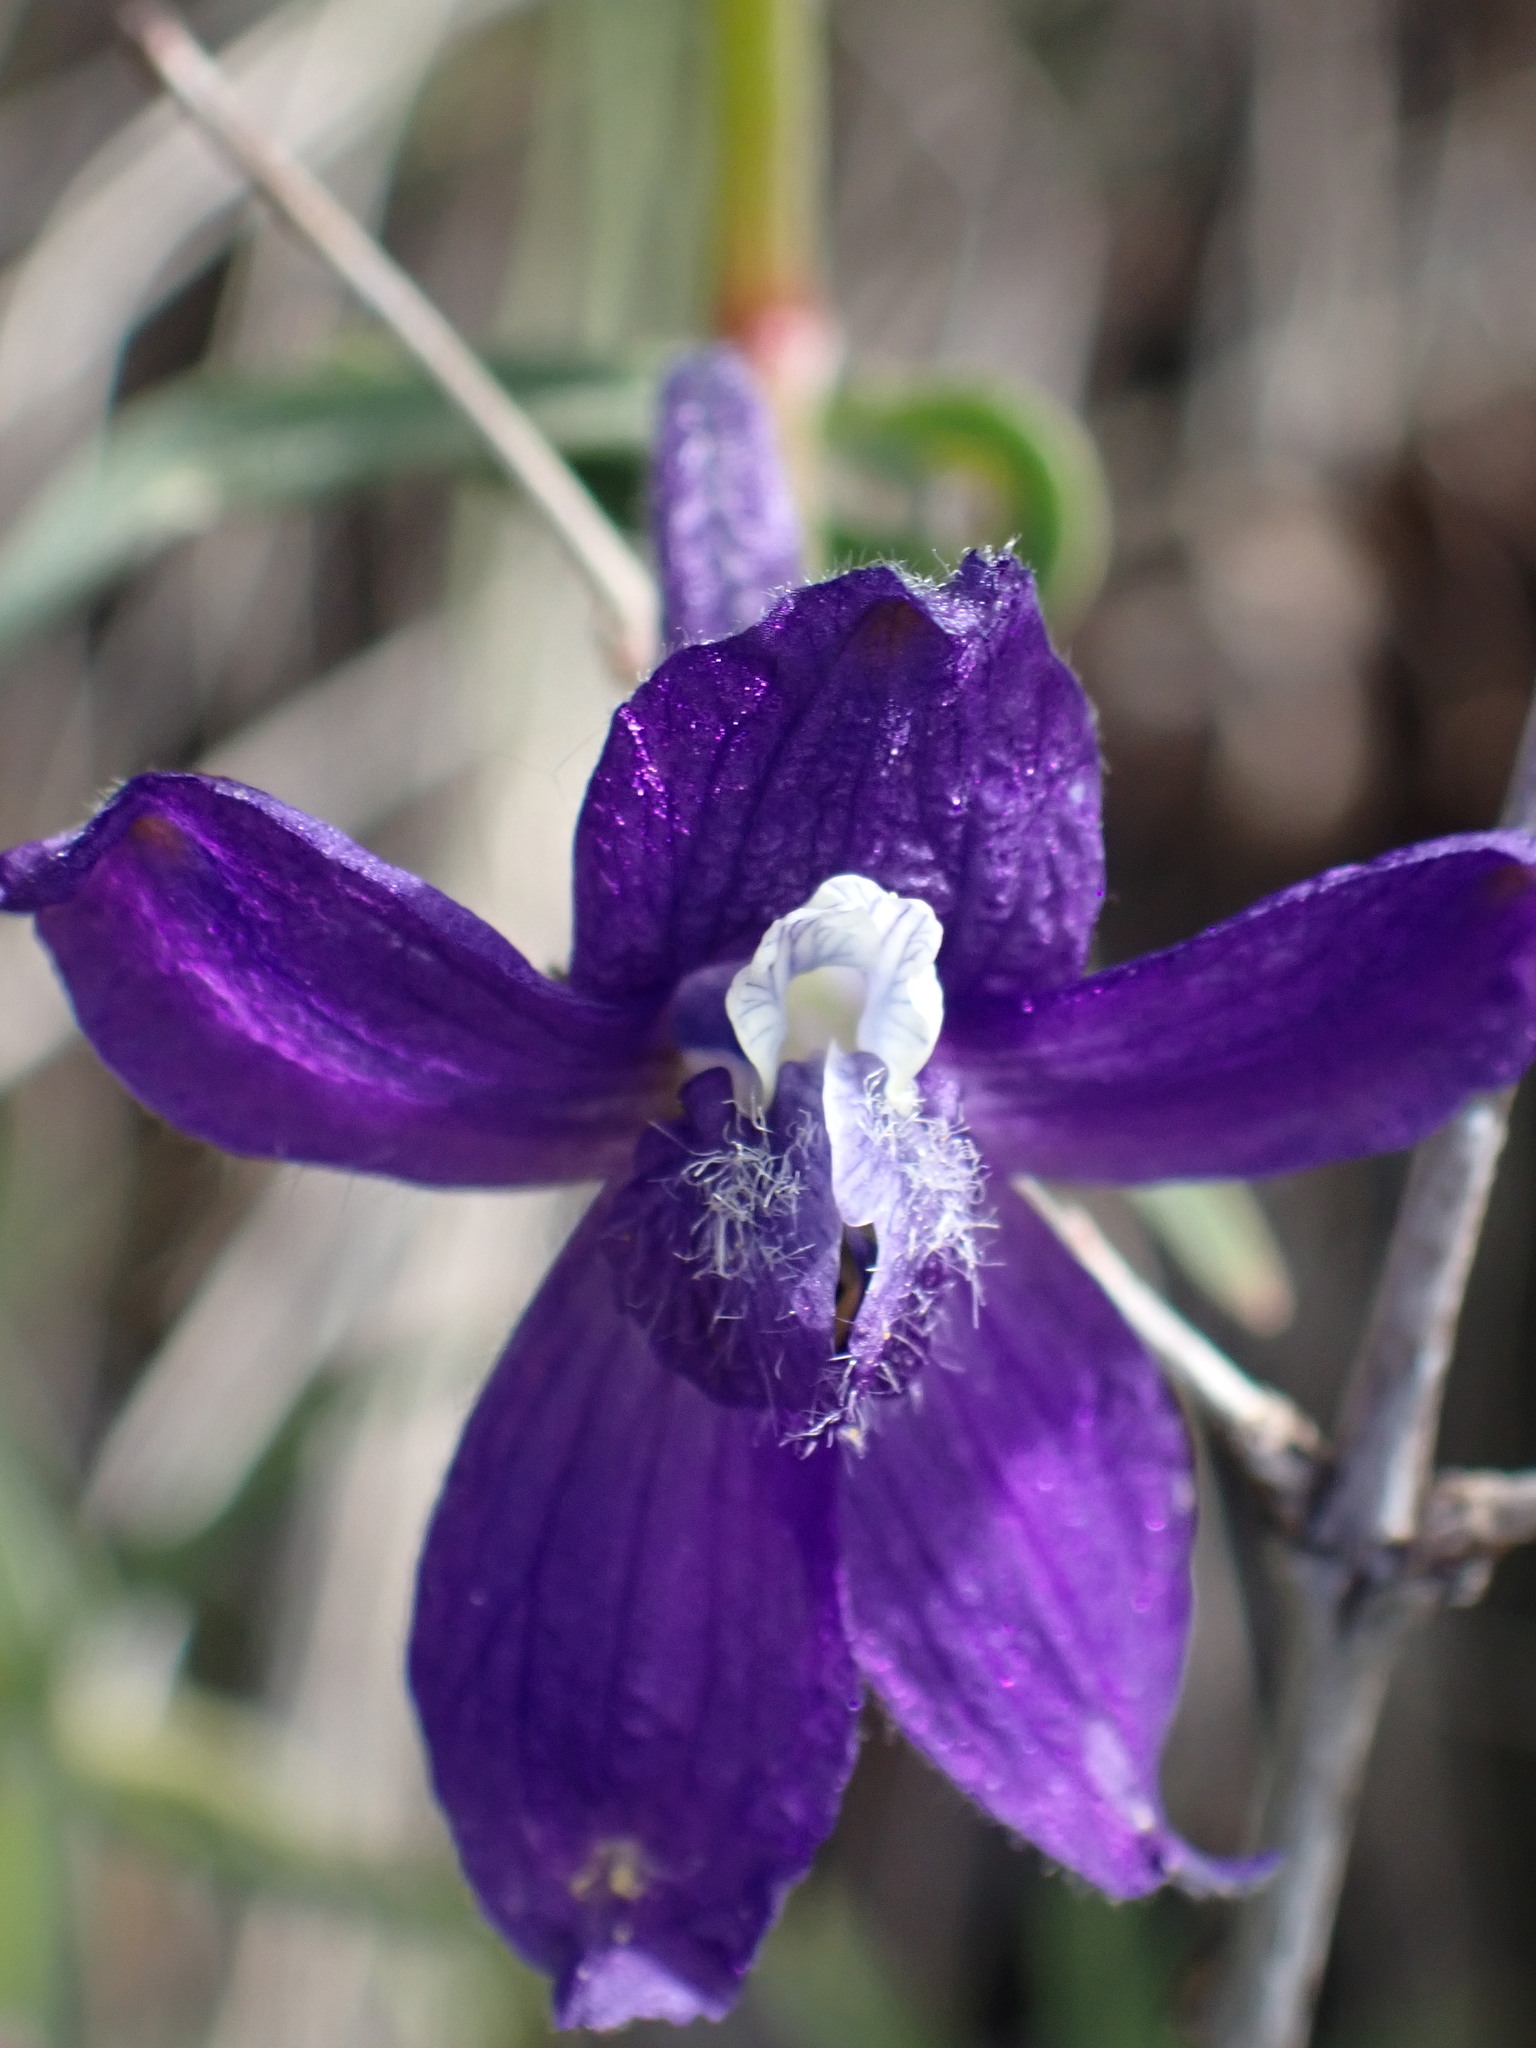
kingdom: Plantae
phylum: Tracheophyta
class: Magnoliopsida
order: Ranunculales
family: Ranunculaceae
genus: Delphinium
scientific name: Delphinium nuttallianum
